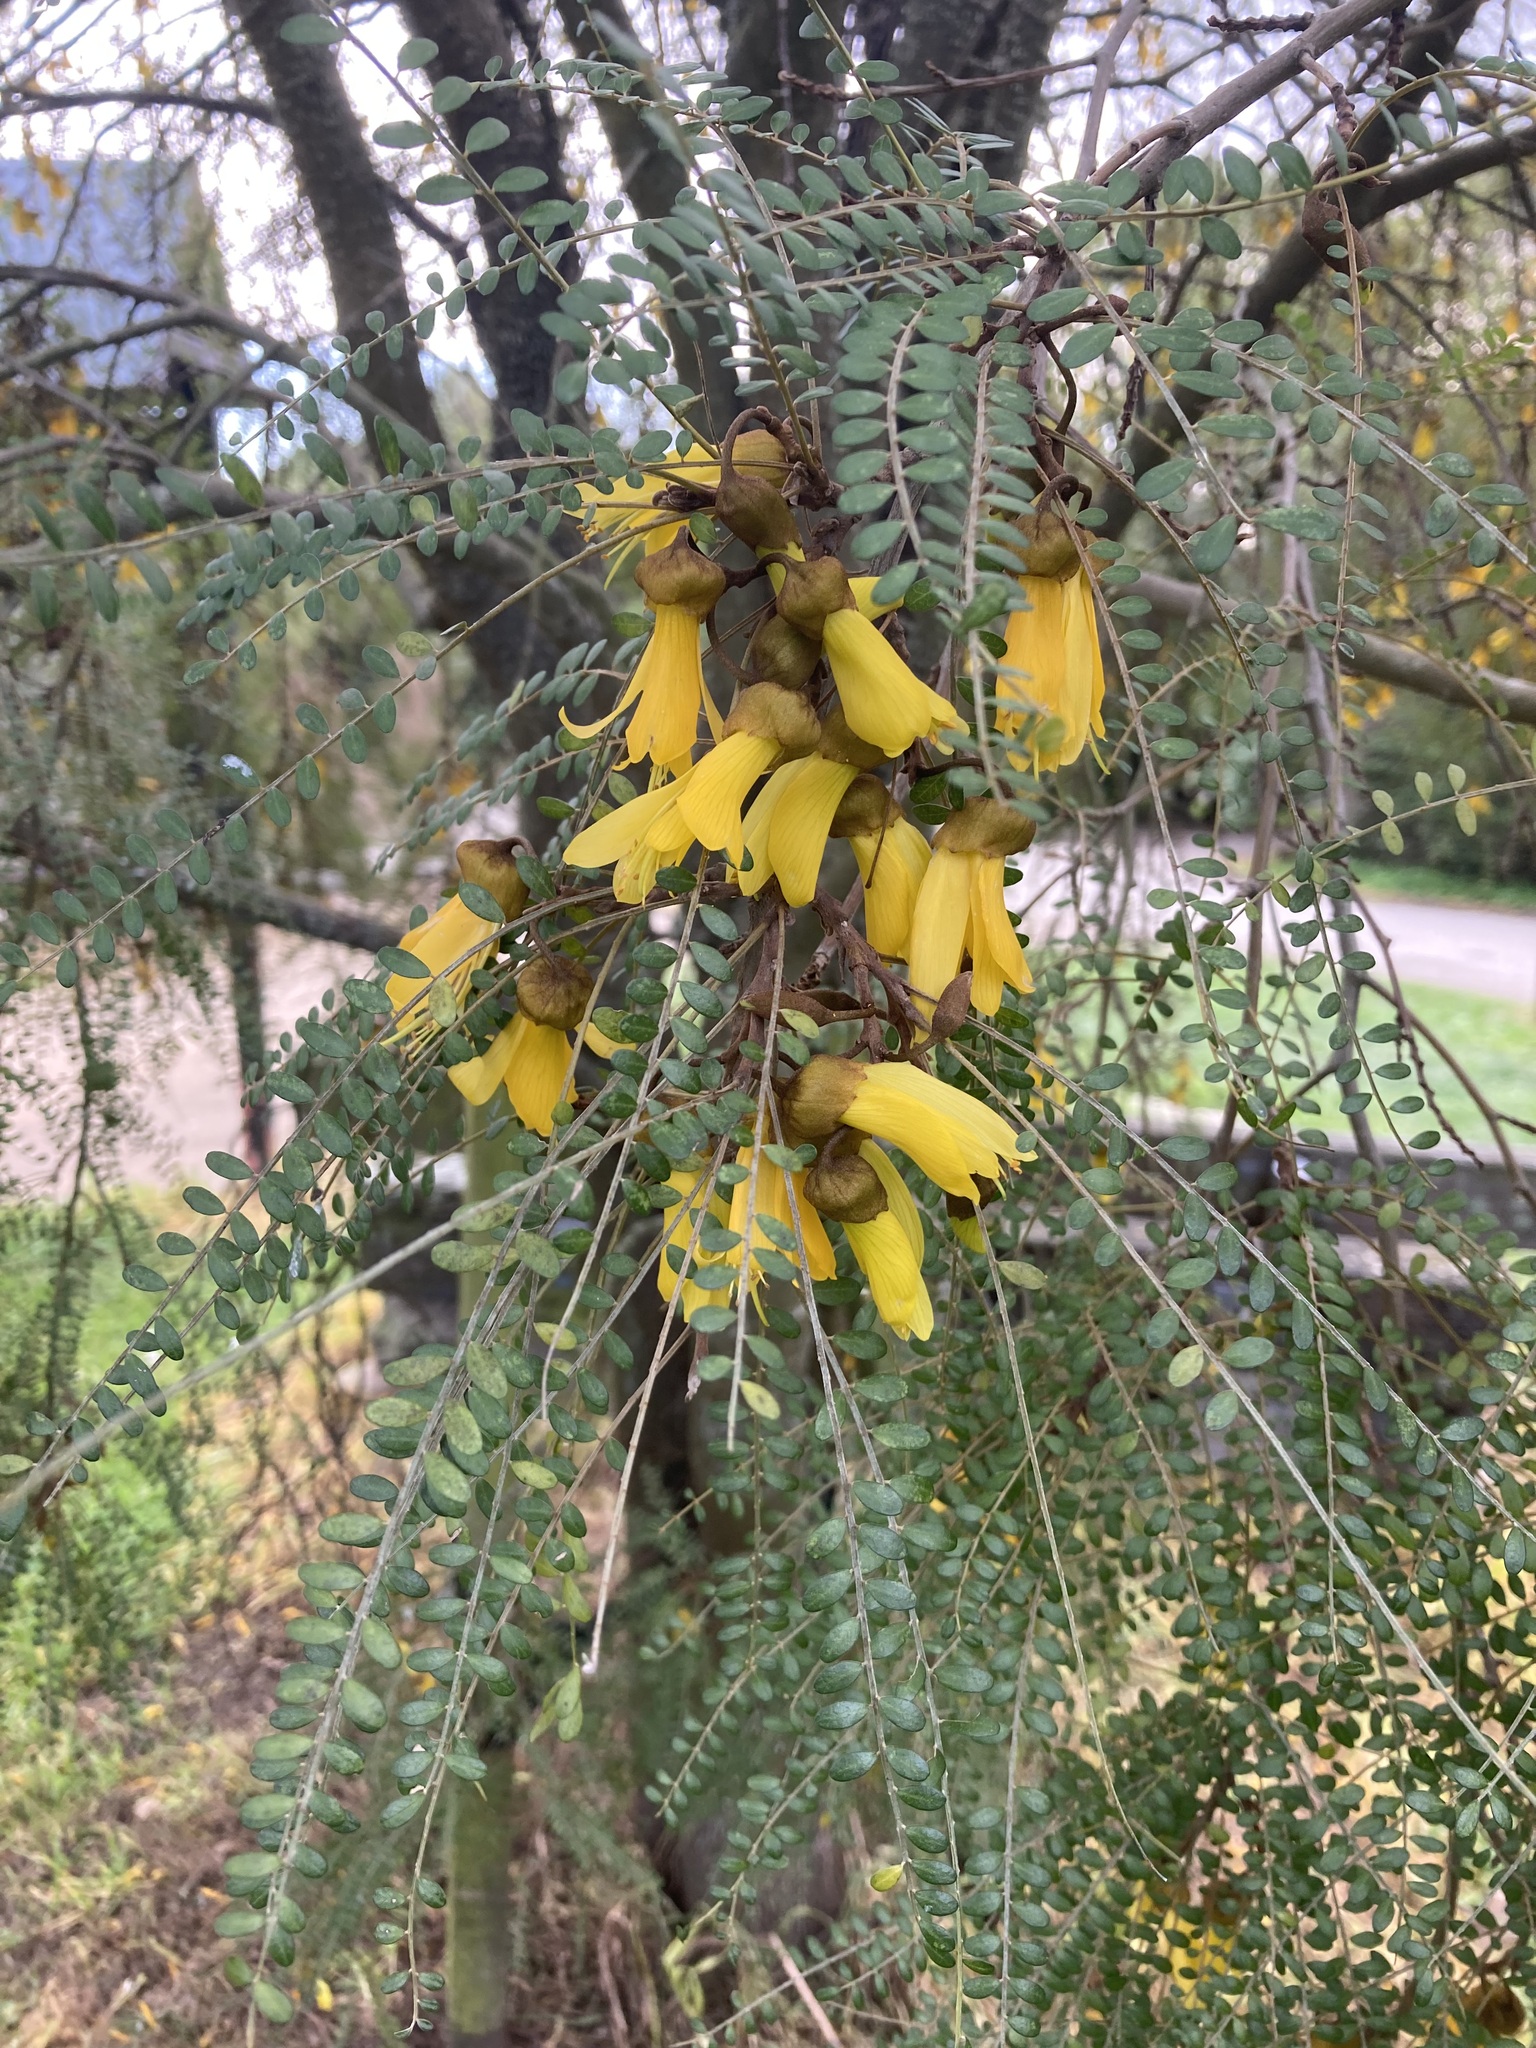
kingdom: Plantae
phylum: Tracheophyta
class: Magnoliopsida
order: Fabales
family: Fabaceae
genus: Sophora
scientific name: Sophora microphylla
